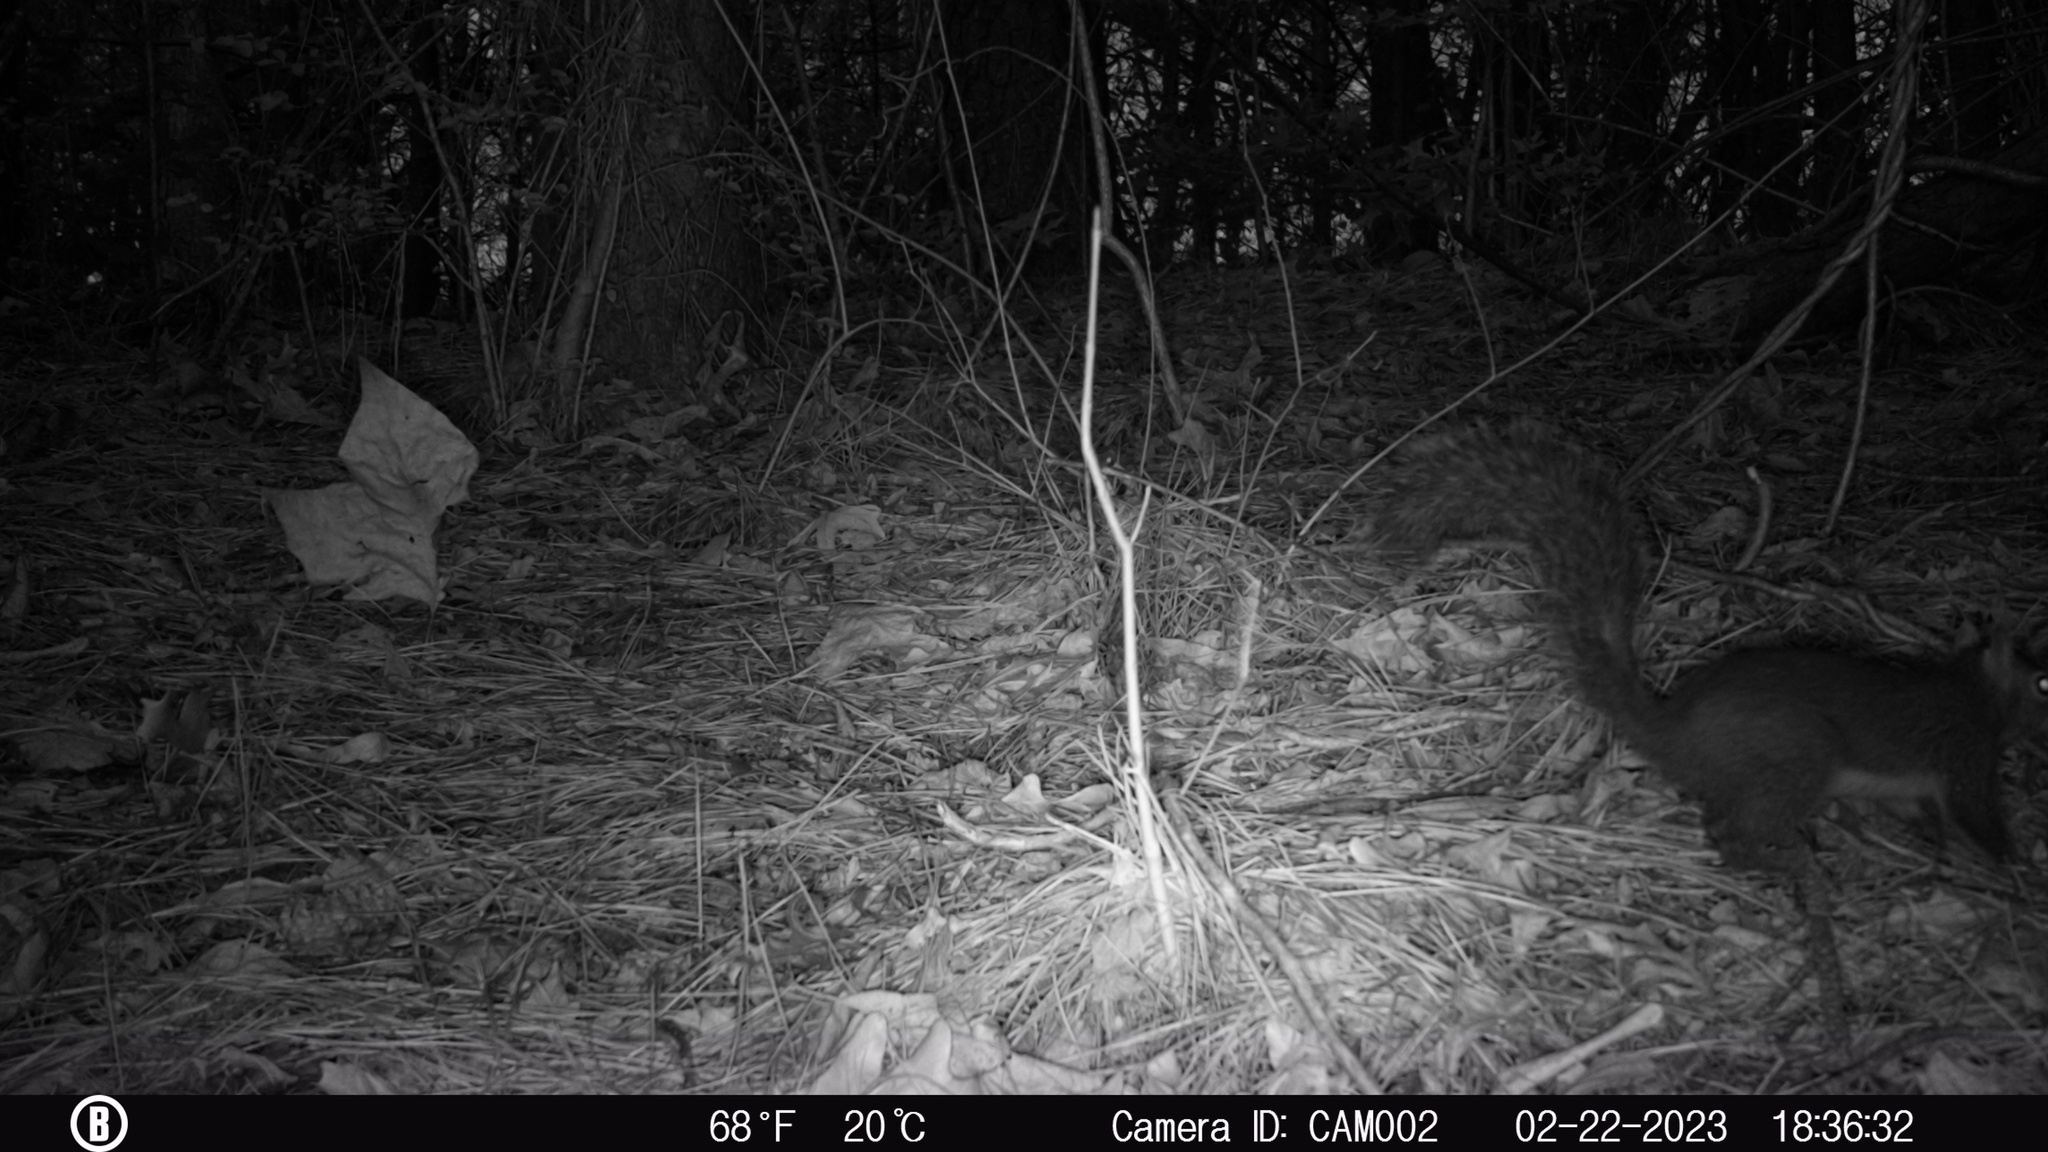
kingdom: Animalia
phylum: Chordata
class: Mammalia
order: Rodentia
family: Sciuridae
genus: Sciurus
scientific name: Sciurus carolinensis
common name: Eastern gray squirrel
